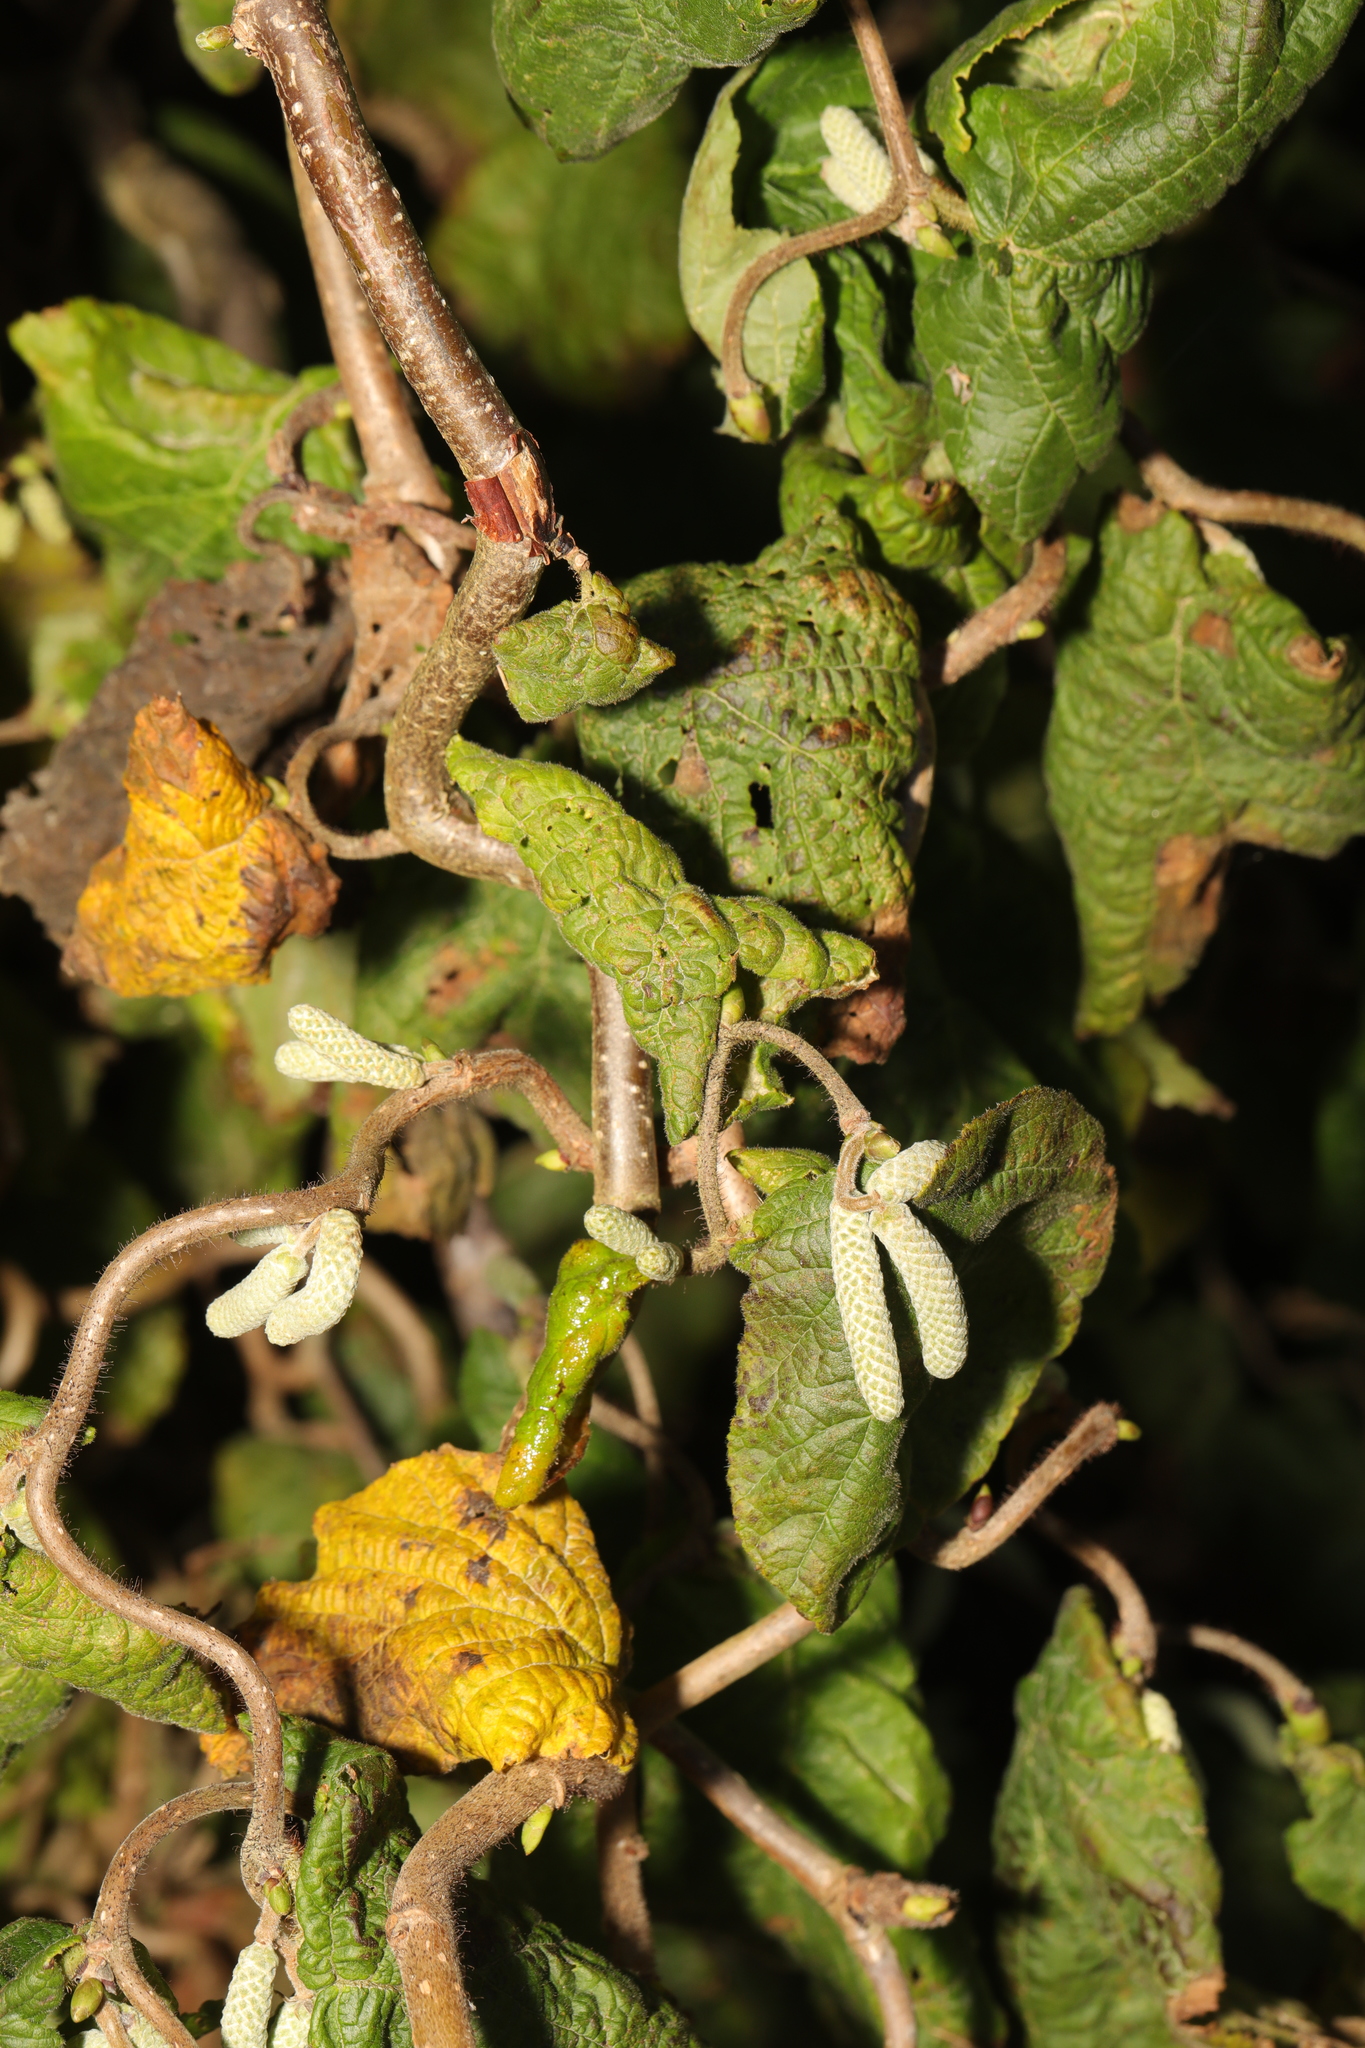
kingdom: Plantae
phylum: Tracheophyta
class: Magnoliopsida
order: Fagales
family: Betulaceae
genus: Corylus
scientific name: Corylus avellana
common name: European hazel
